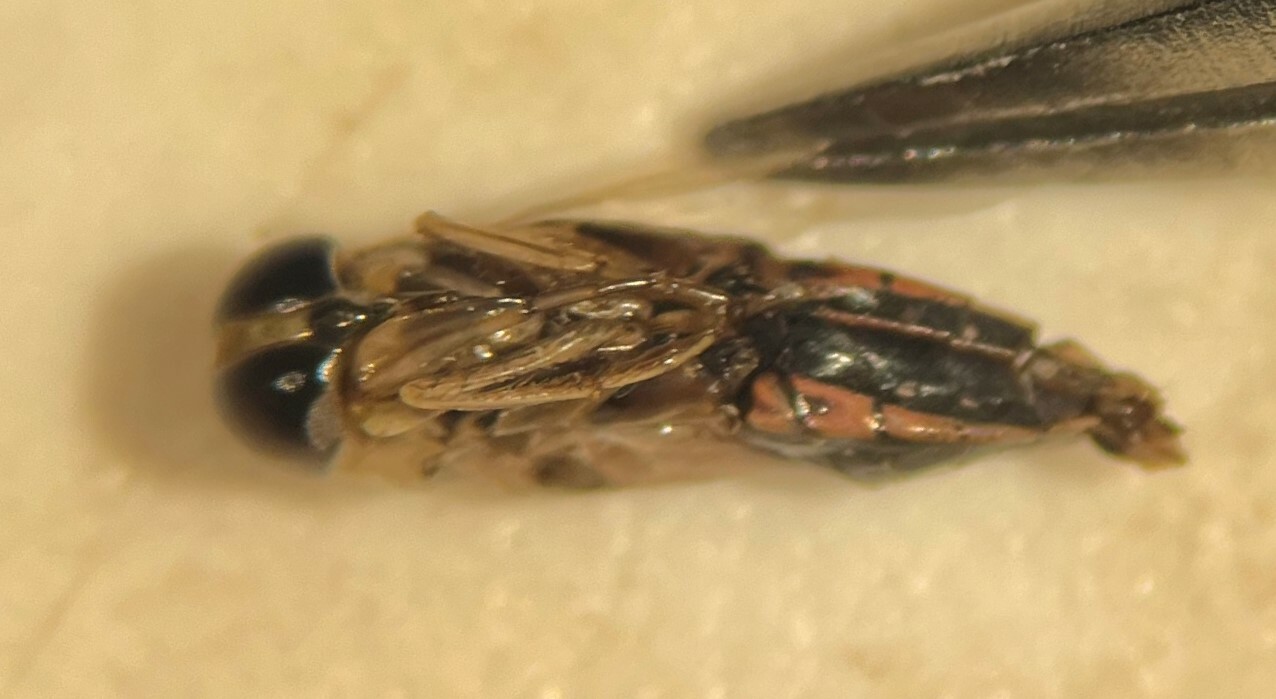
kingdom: Animalia
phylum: Arthropoda
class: Insecta
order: Hemiptera
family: Notonectidae
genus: Buenoa
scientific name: Buenoa platycnemis
